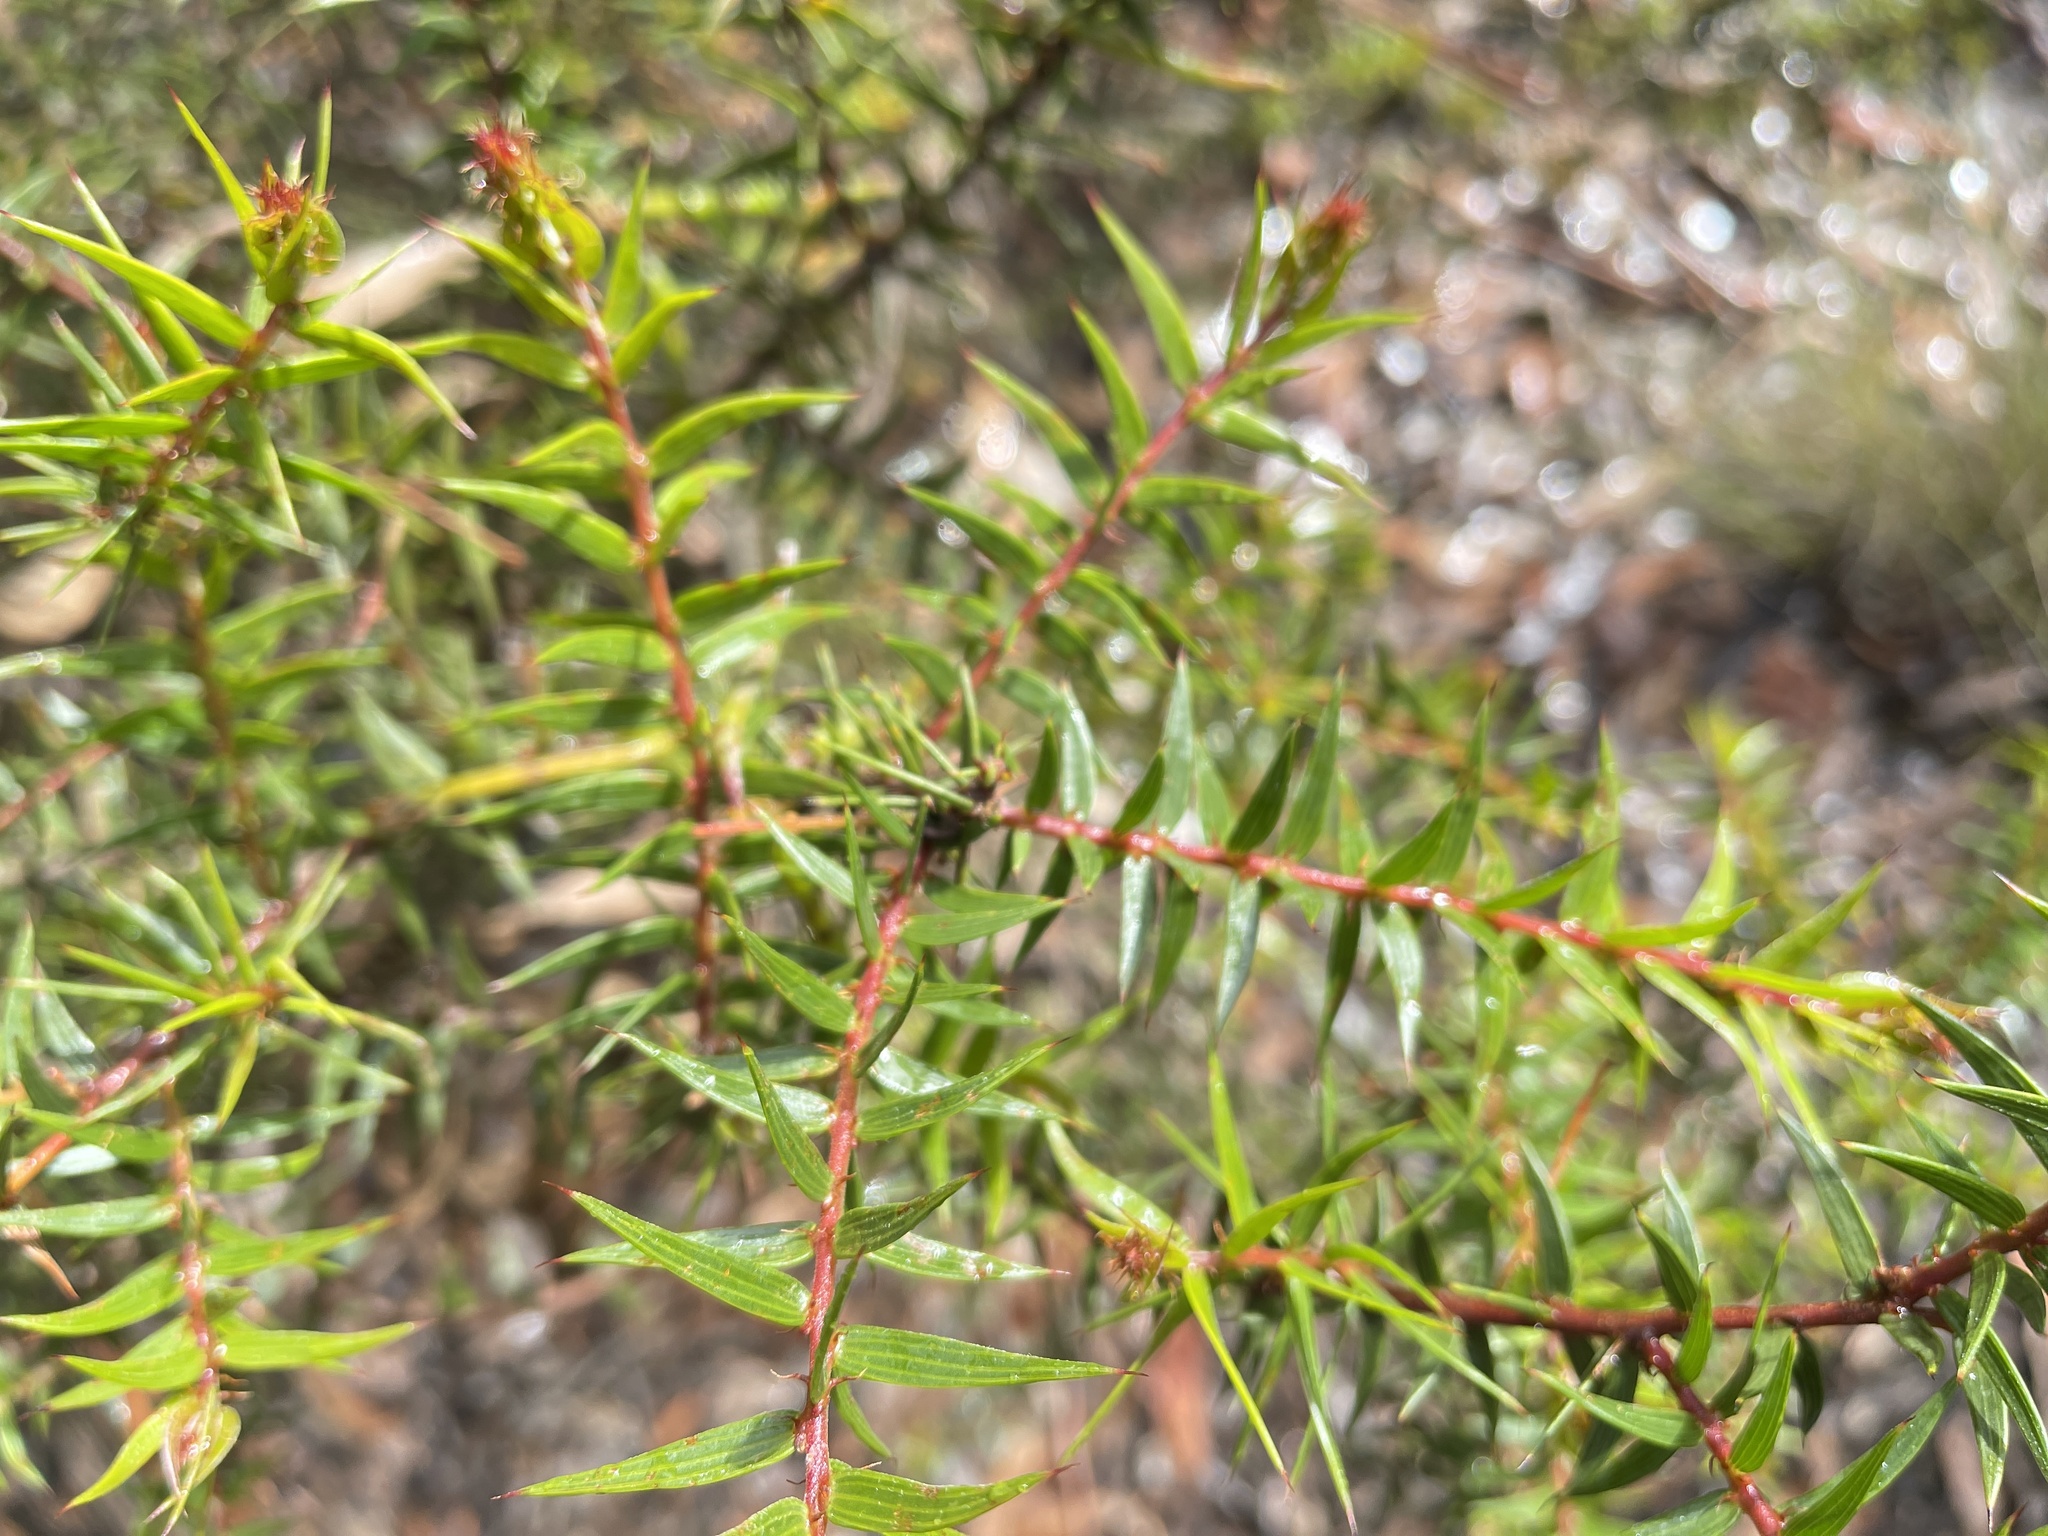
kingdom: Plantae
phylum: Tracheophyta
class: Magnoliopsida
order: Fabales
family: Fabaceae
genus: Acacia
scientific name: Acacia oxycedrus
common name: Spike wattle
